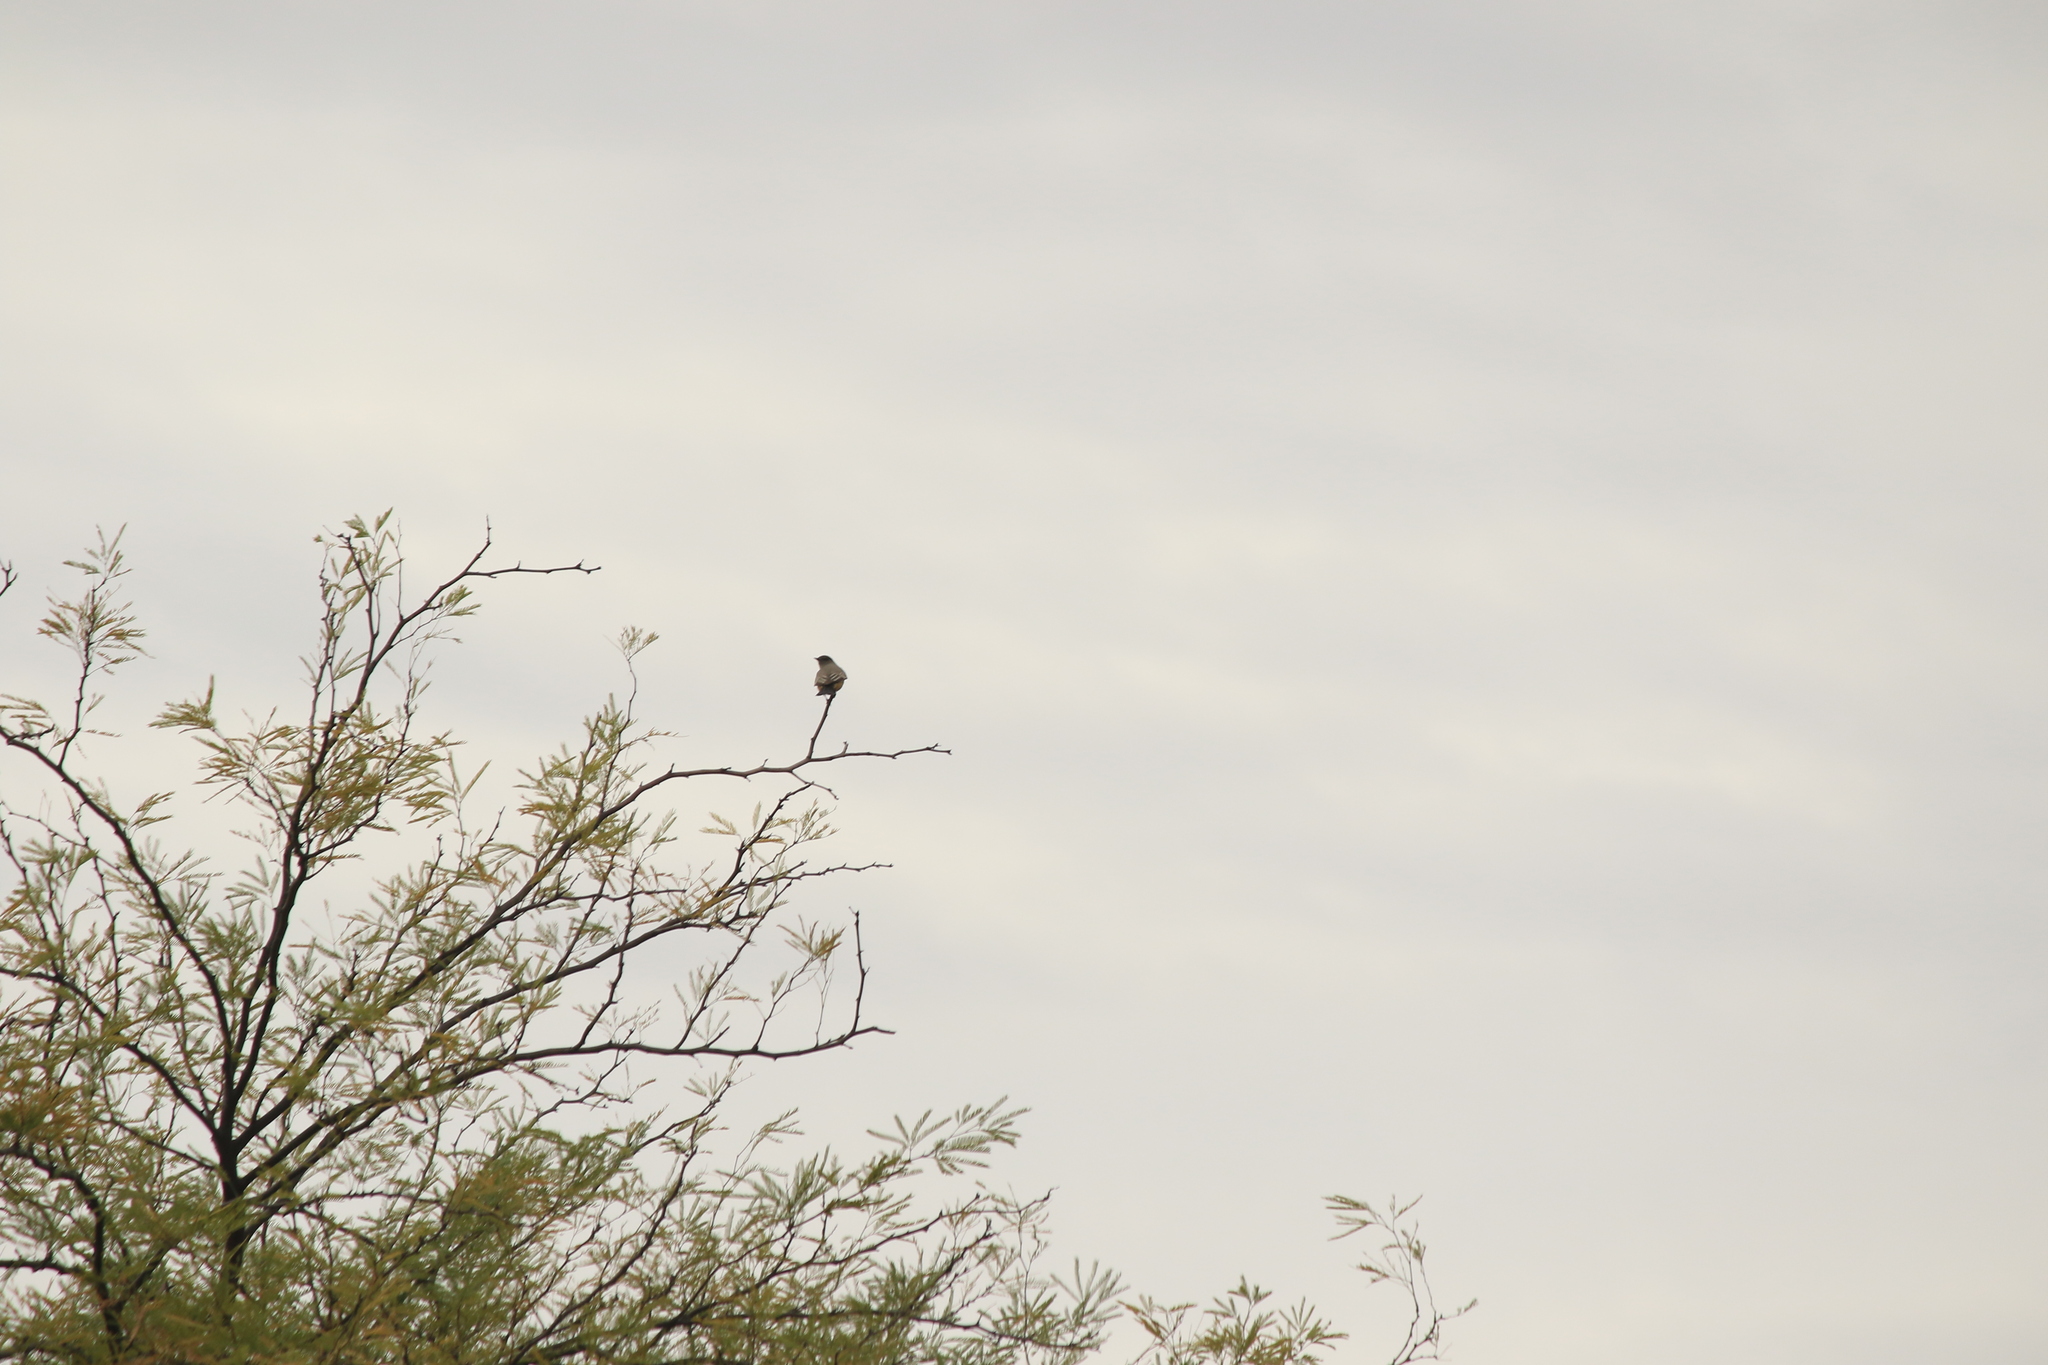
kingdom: Animalia
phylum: Chordata
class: Aves
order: Passeriformes
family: Tyrannidae
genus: Sayornis
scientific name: Sayornis saya
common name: Say's phoebe
